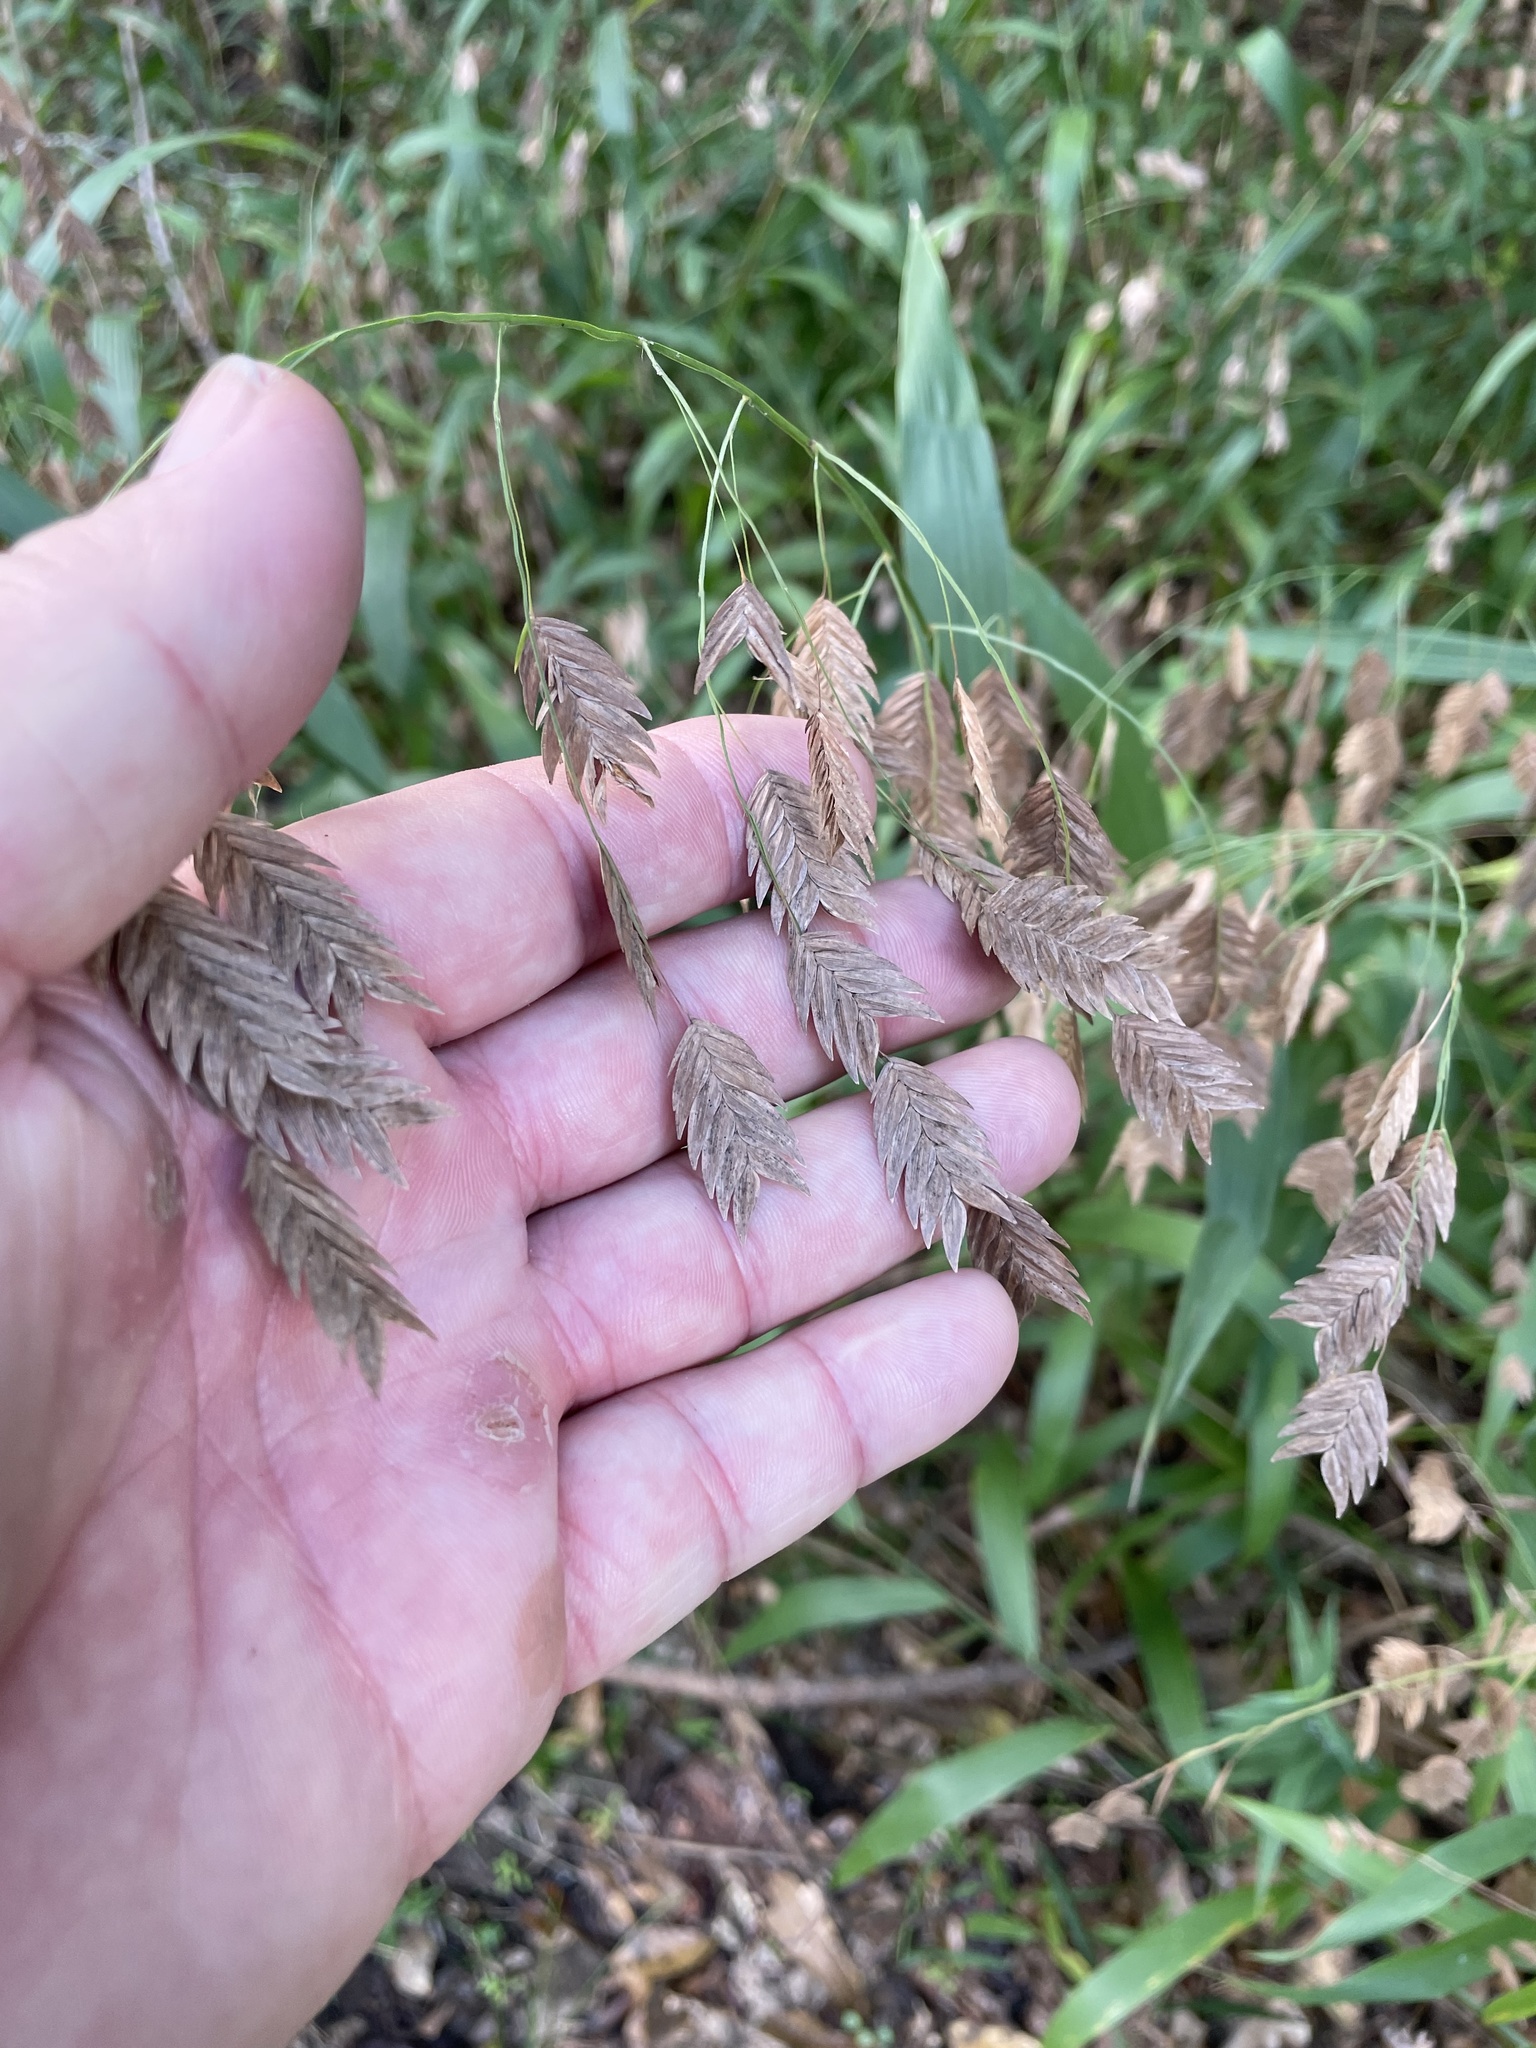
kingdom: Plantae
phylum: Tracheophyta
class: Liliopsida
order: Poales
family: Poaceae
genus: Chasmanthium
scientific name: Chasmanthium latifolium
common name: Broad-leaved chasmanthium
